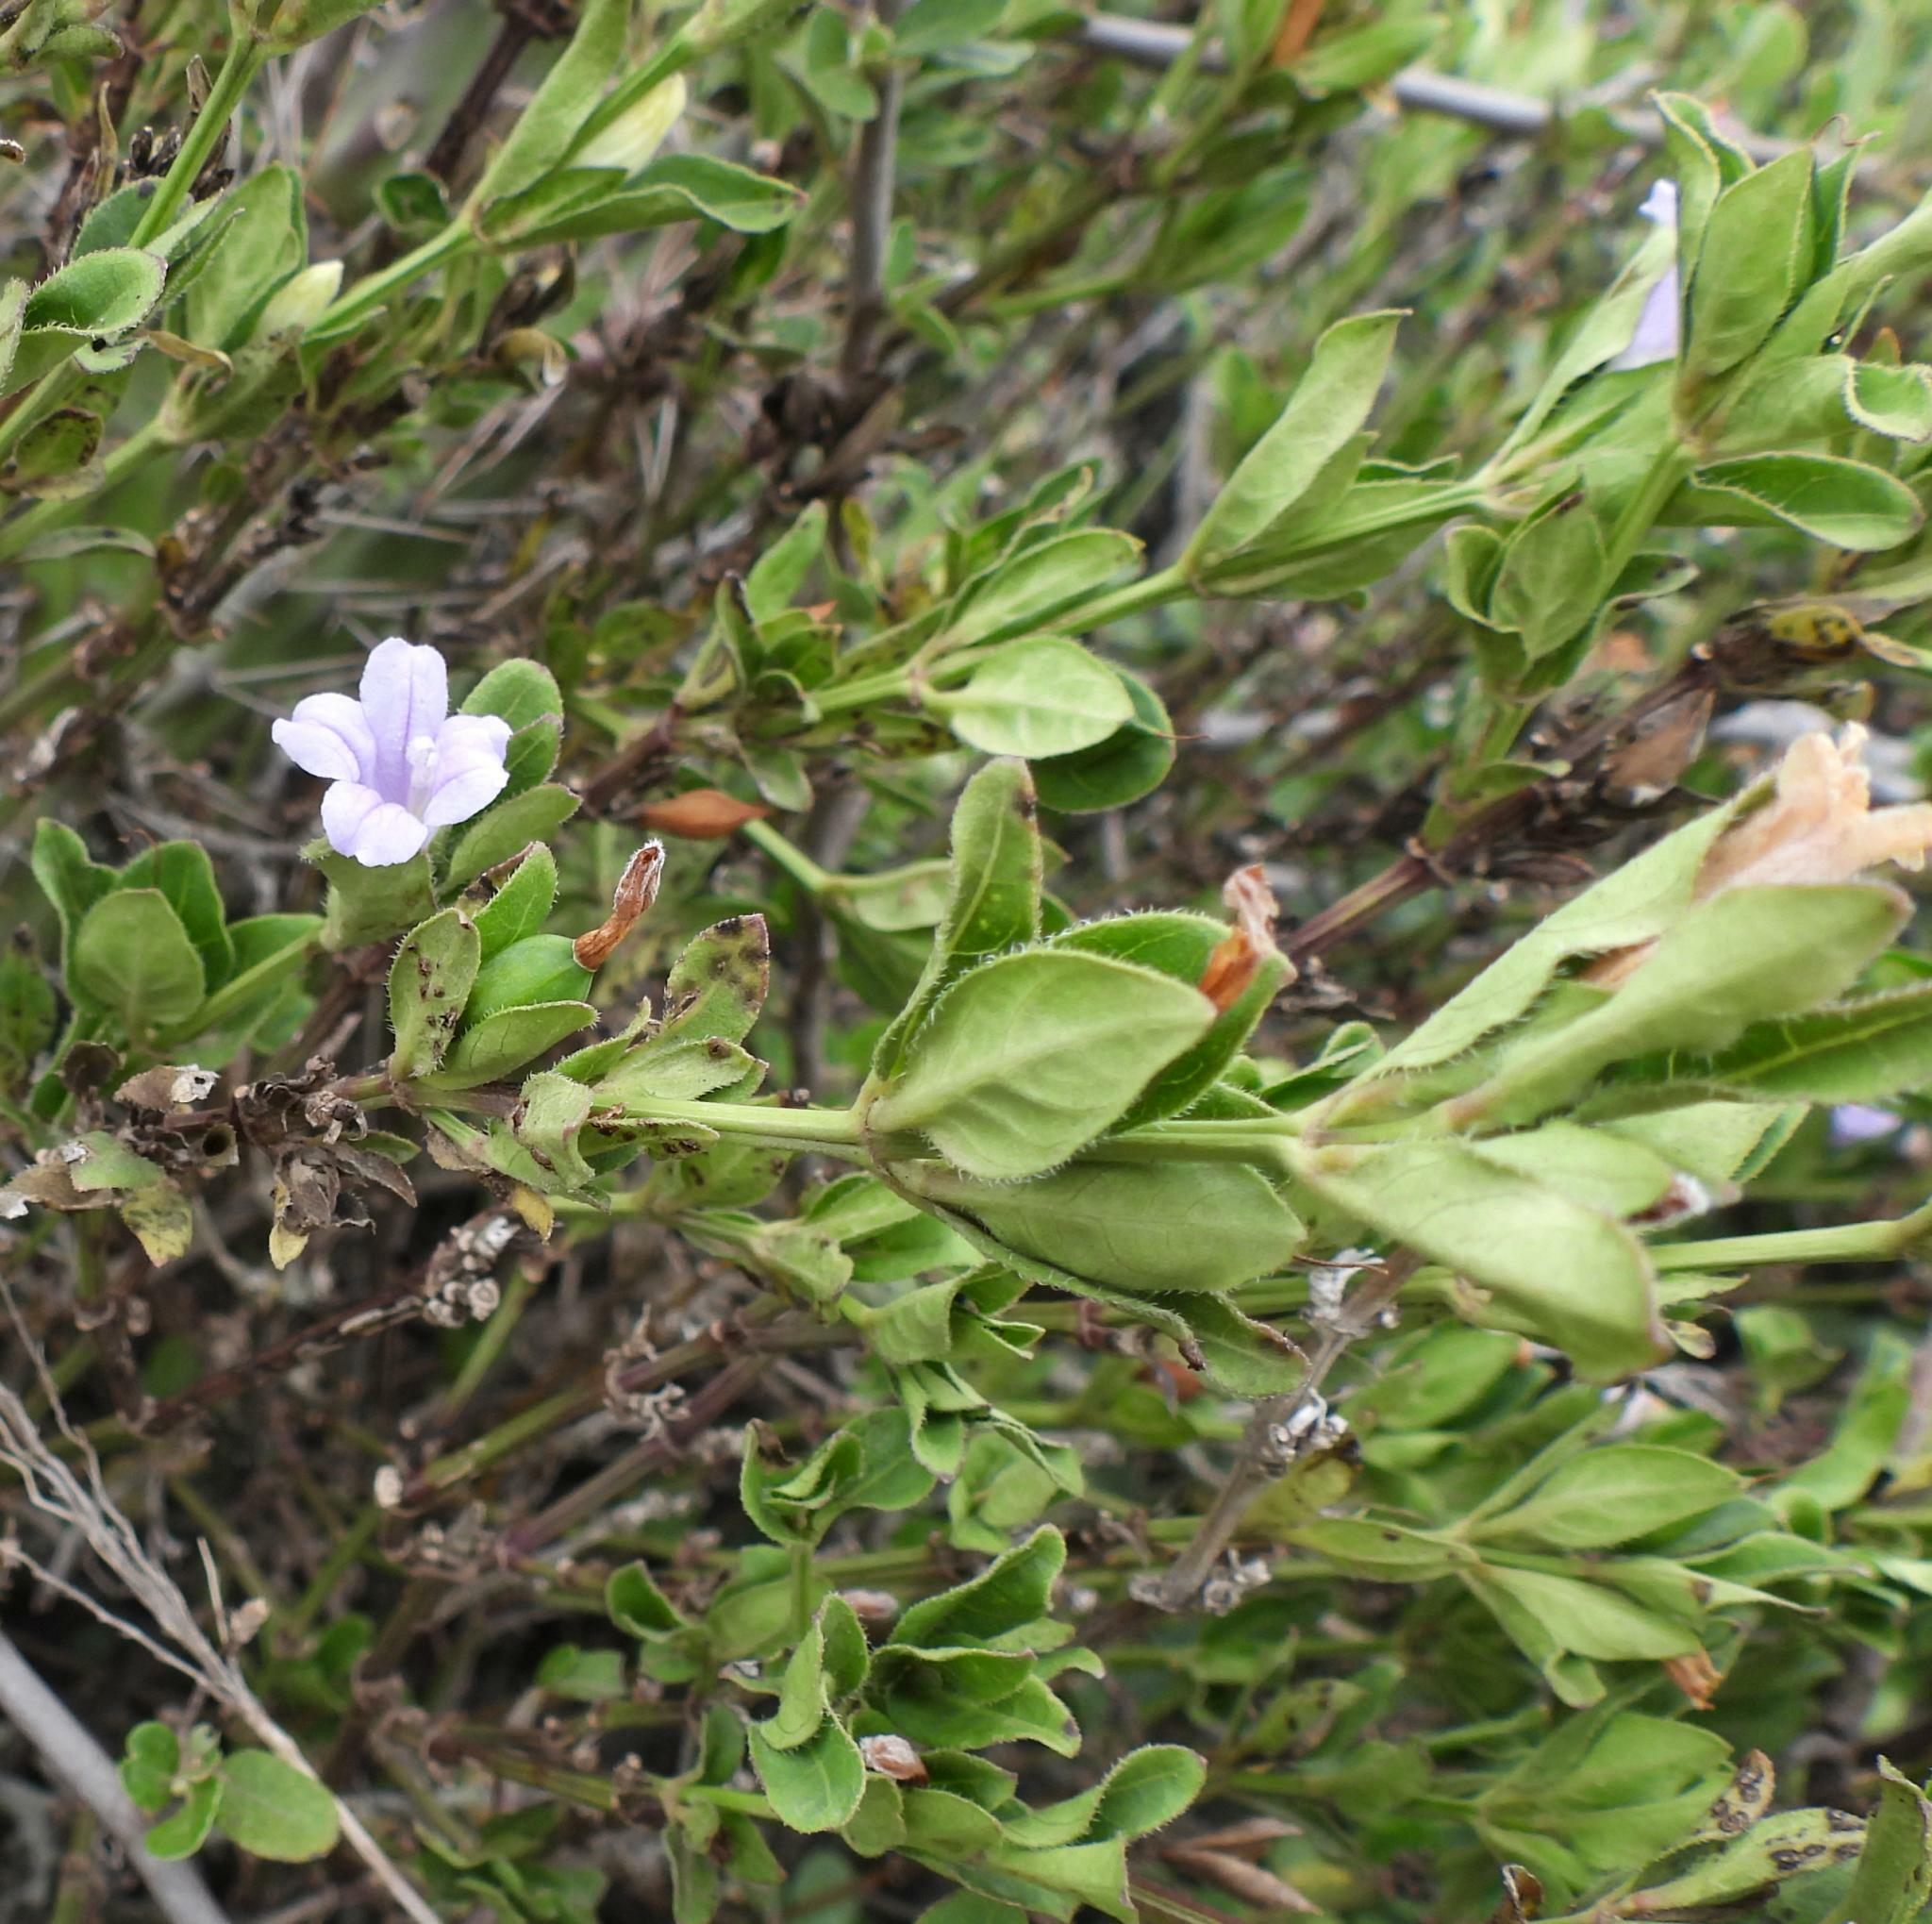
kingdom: Plantae
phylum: Tracheophyta
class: Magnoliopsida
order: Lamiales
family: Acanthaceae
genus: Ruellia
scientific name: Ruellia cordata
